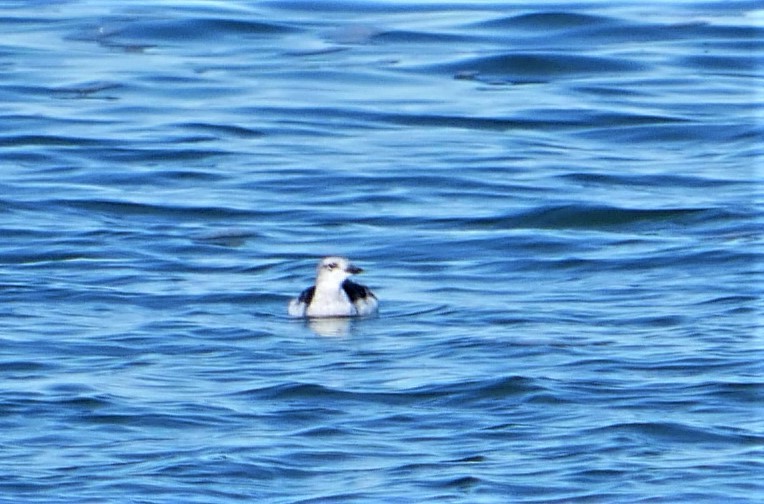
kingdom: Animalia
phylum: Chordata
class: Aves
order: Charadriiformes
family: Alcidae
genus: Cepphus
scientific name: Cepphus grylle
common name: Black guillemot
